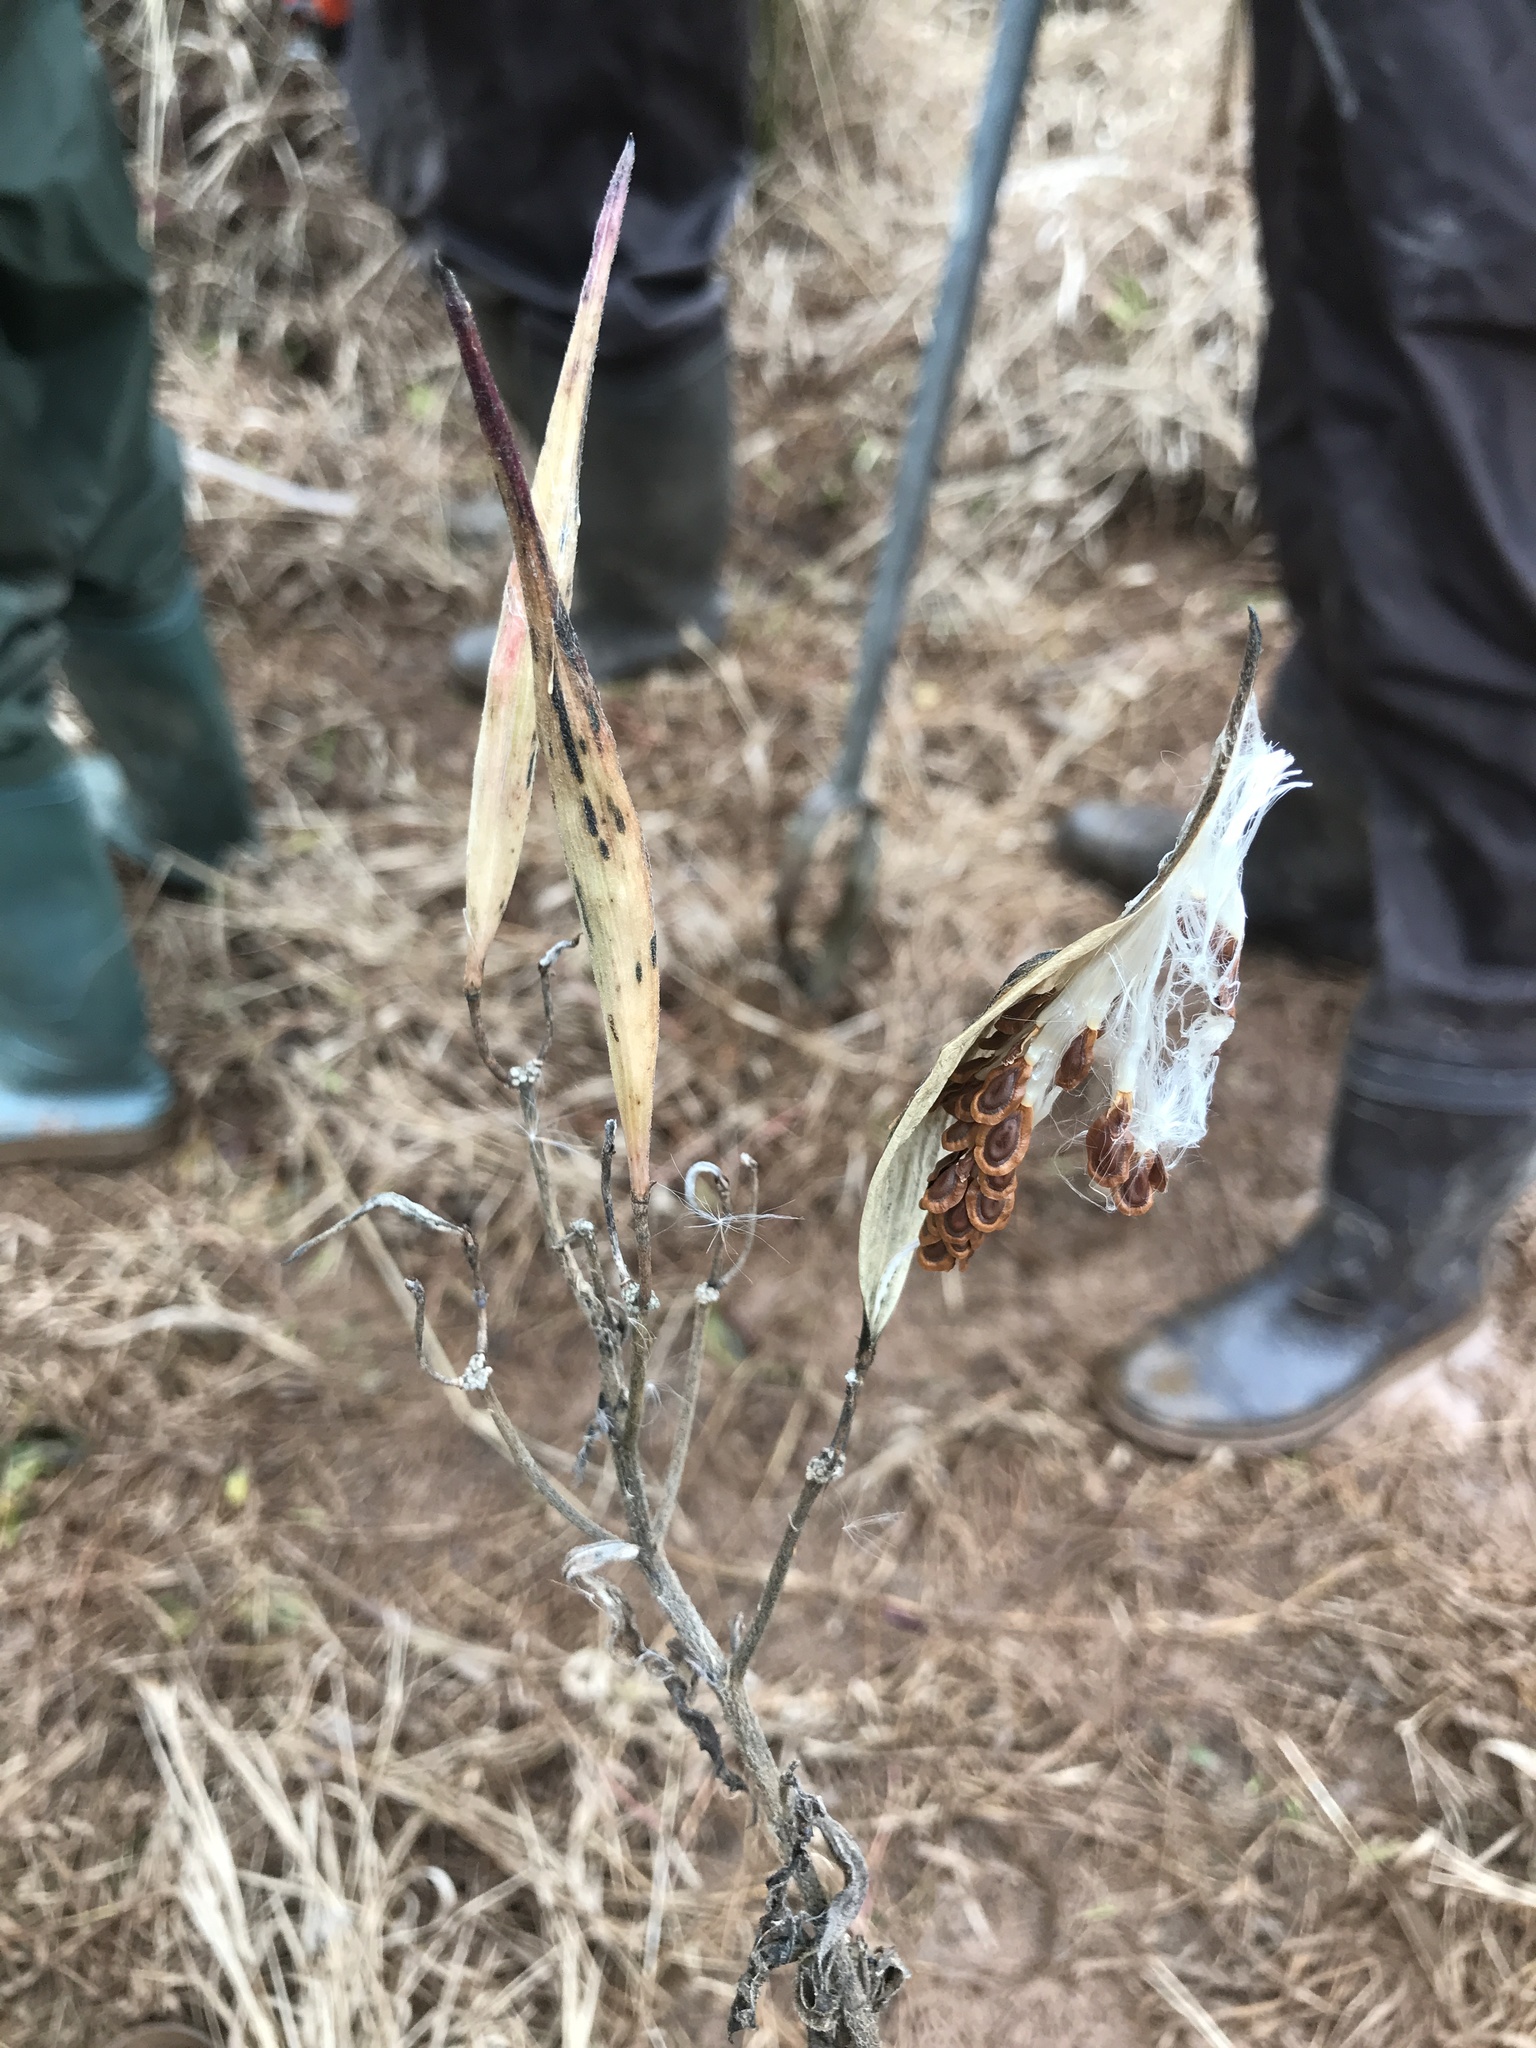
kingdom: Plantae
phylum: Tracheophyta
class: Magnoliopsida
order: Gentianales
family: Apocynaceae
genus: Asclepias
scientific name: Asclepias incarnata
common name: Swamp milkweed
